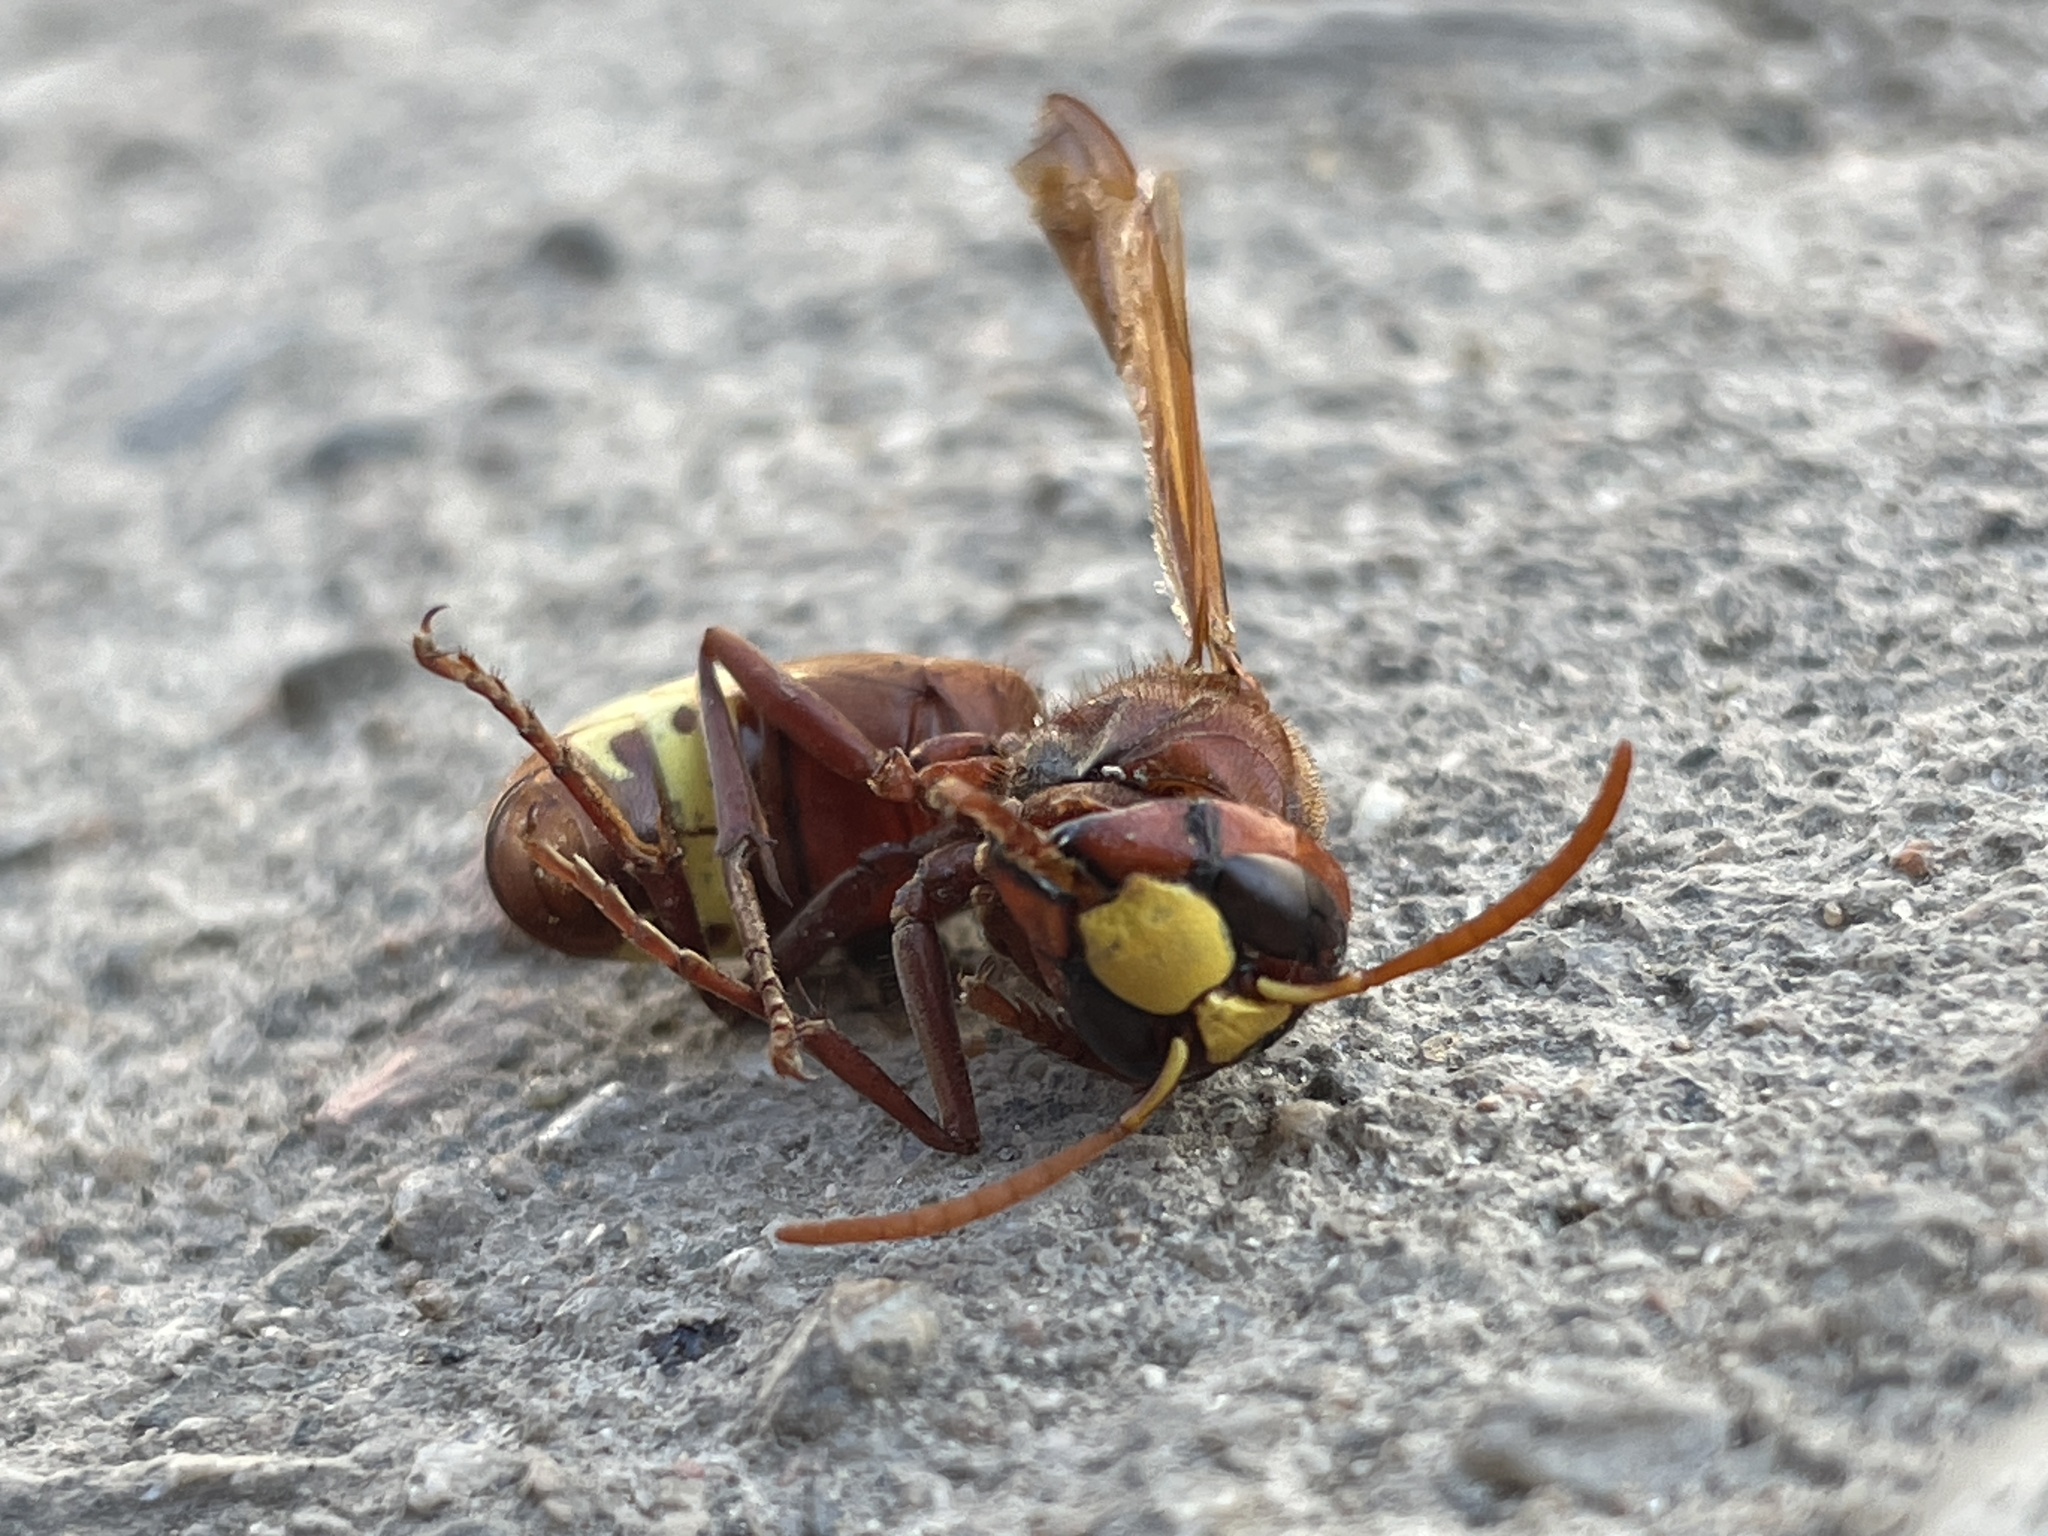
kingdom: Animalia
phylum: Arthropoda
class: Insecta
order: Hymenoptera
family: Vespidae
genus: Vespa
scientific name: Vespa orientalis
